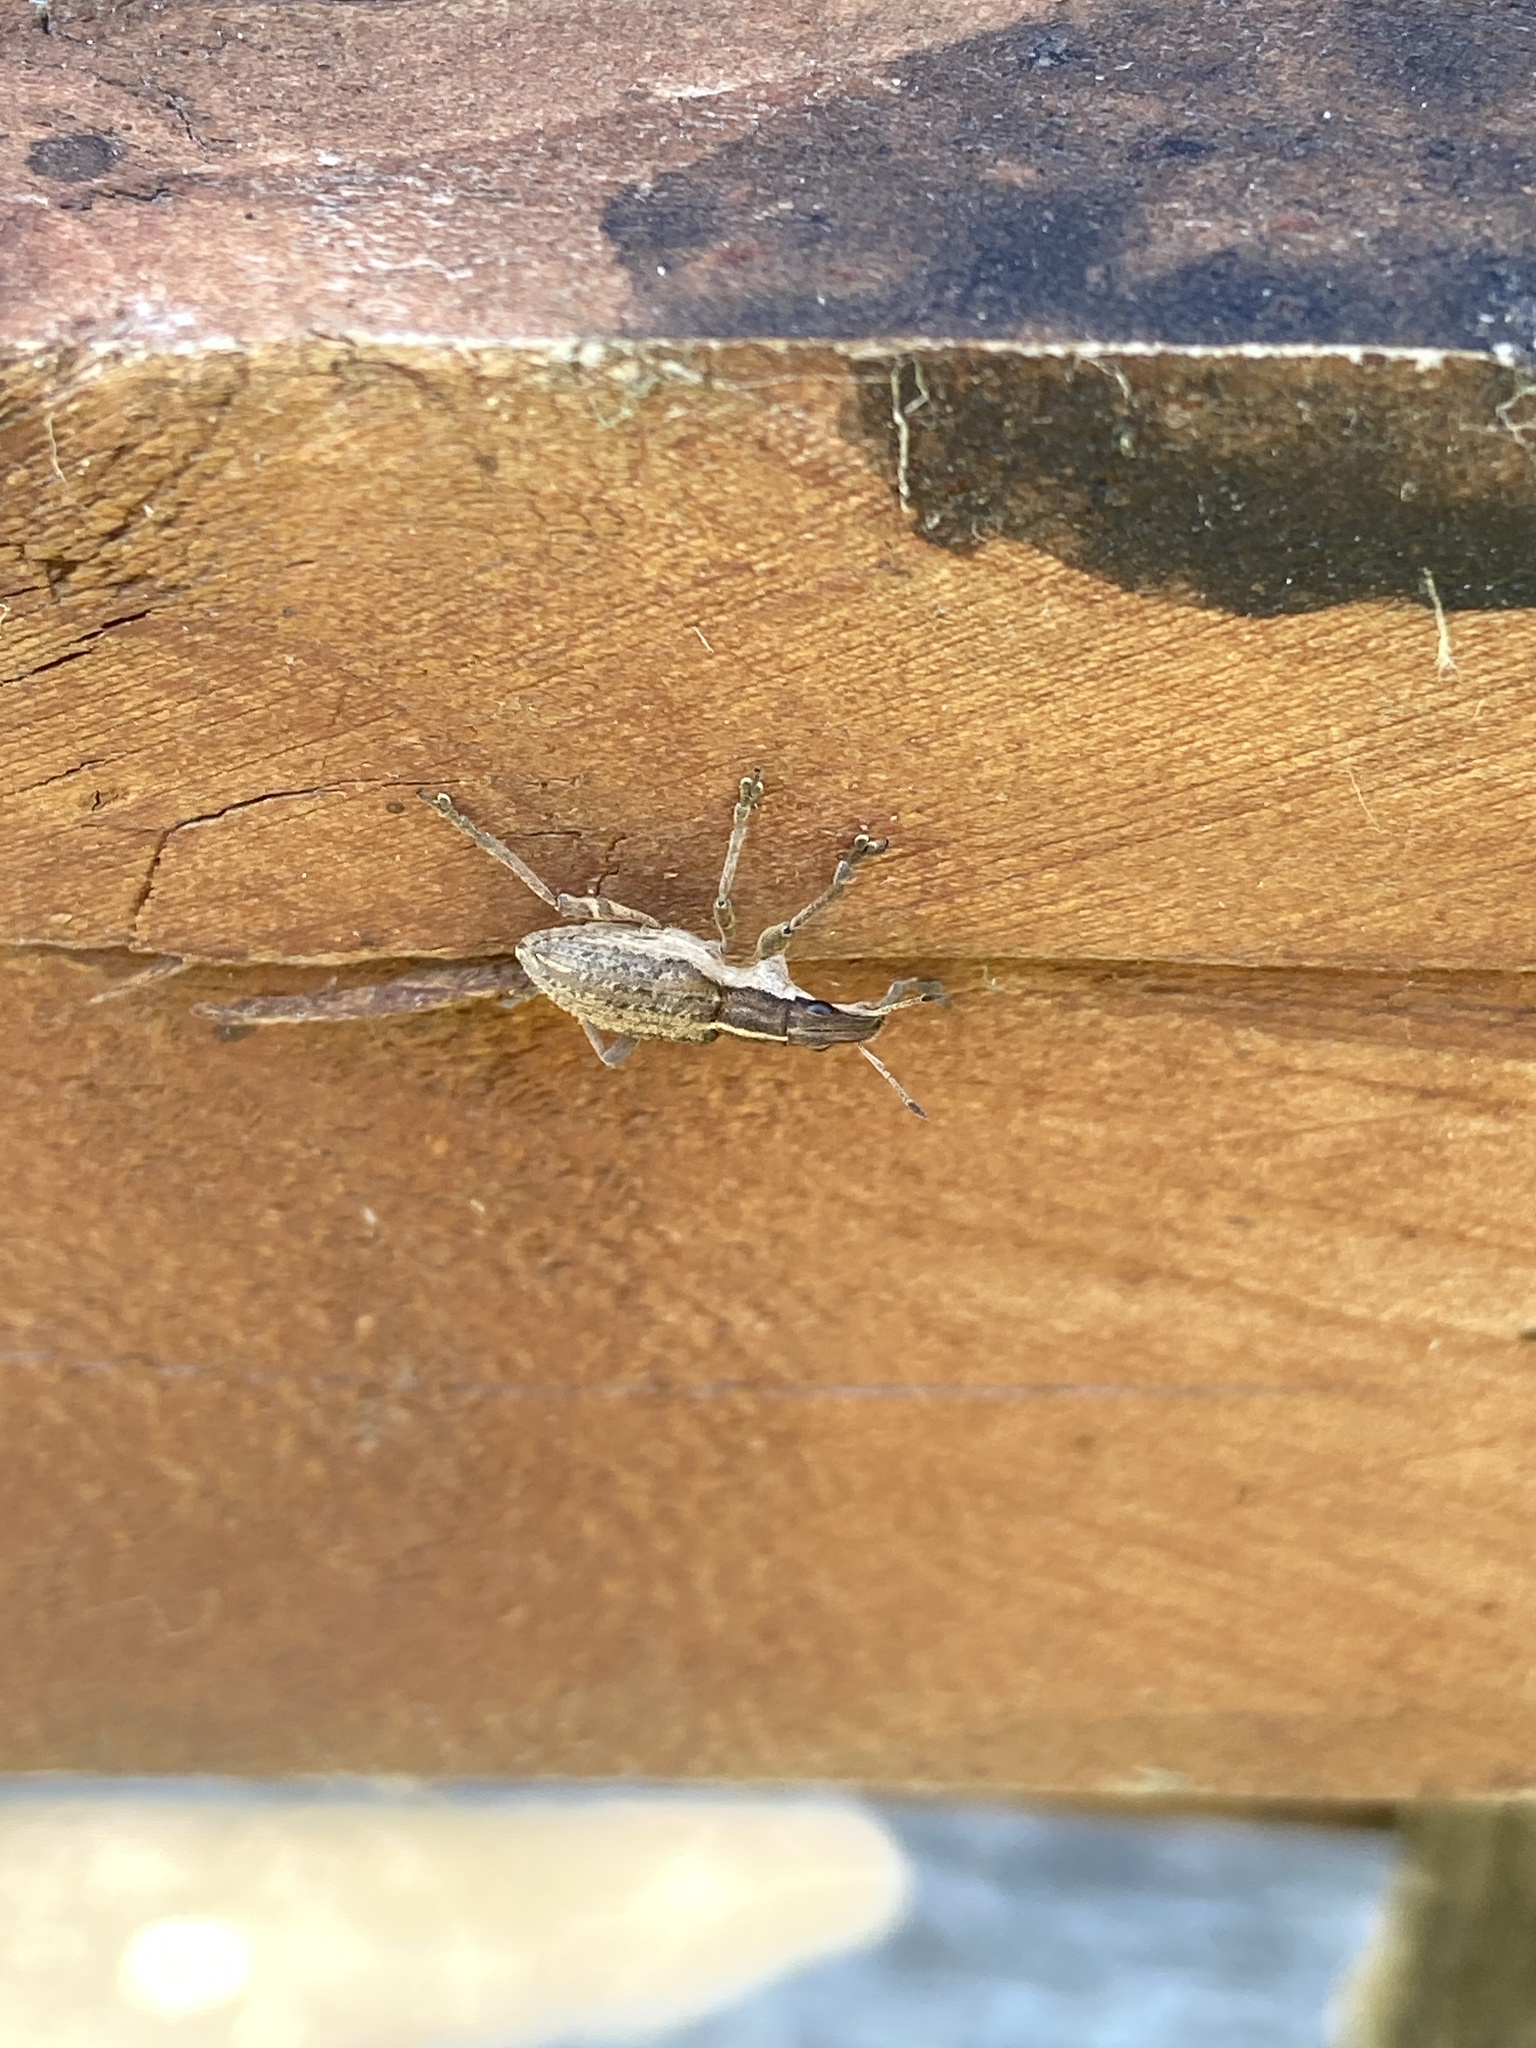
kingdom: Animalia
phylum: Arthropoda
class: Insecta
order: Coleoptera
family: Curculionidae
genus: Charagmus
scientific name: Charagmus gressorius
